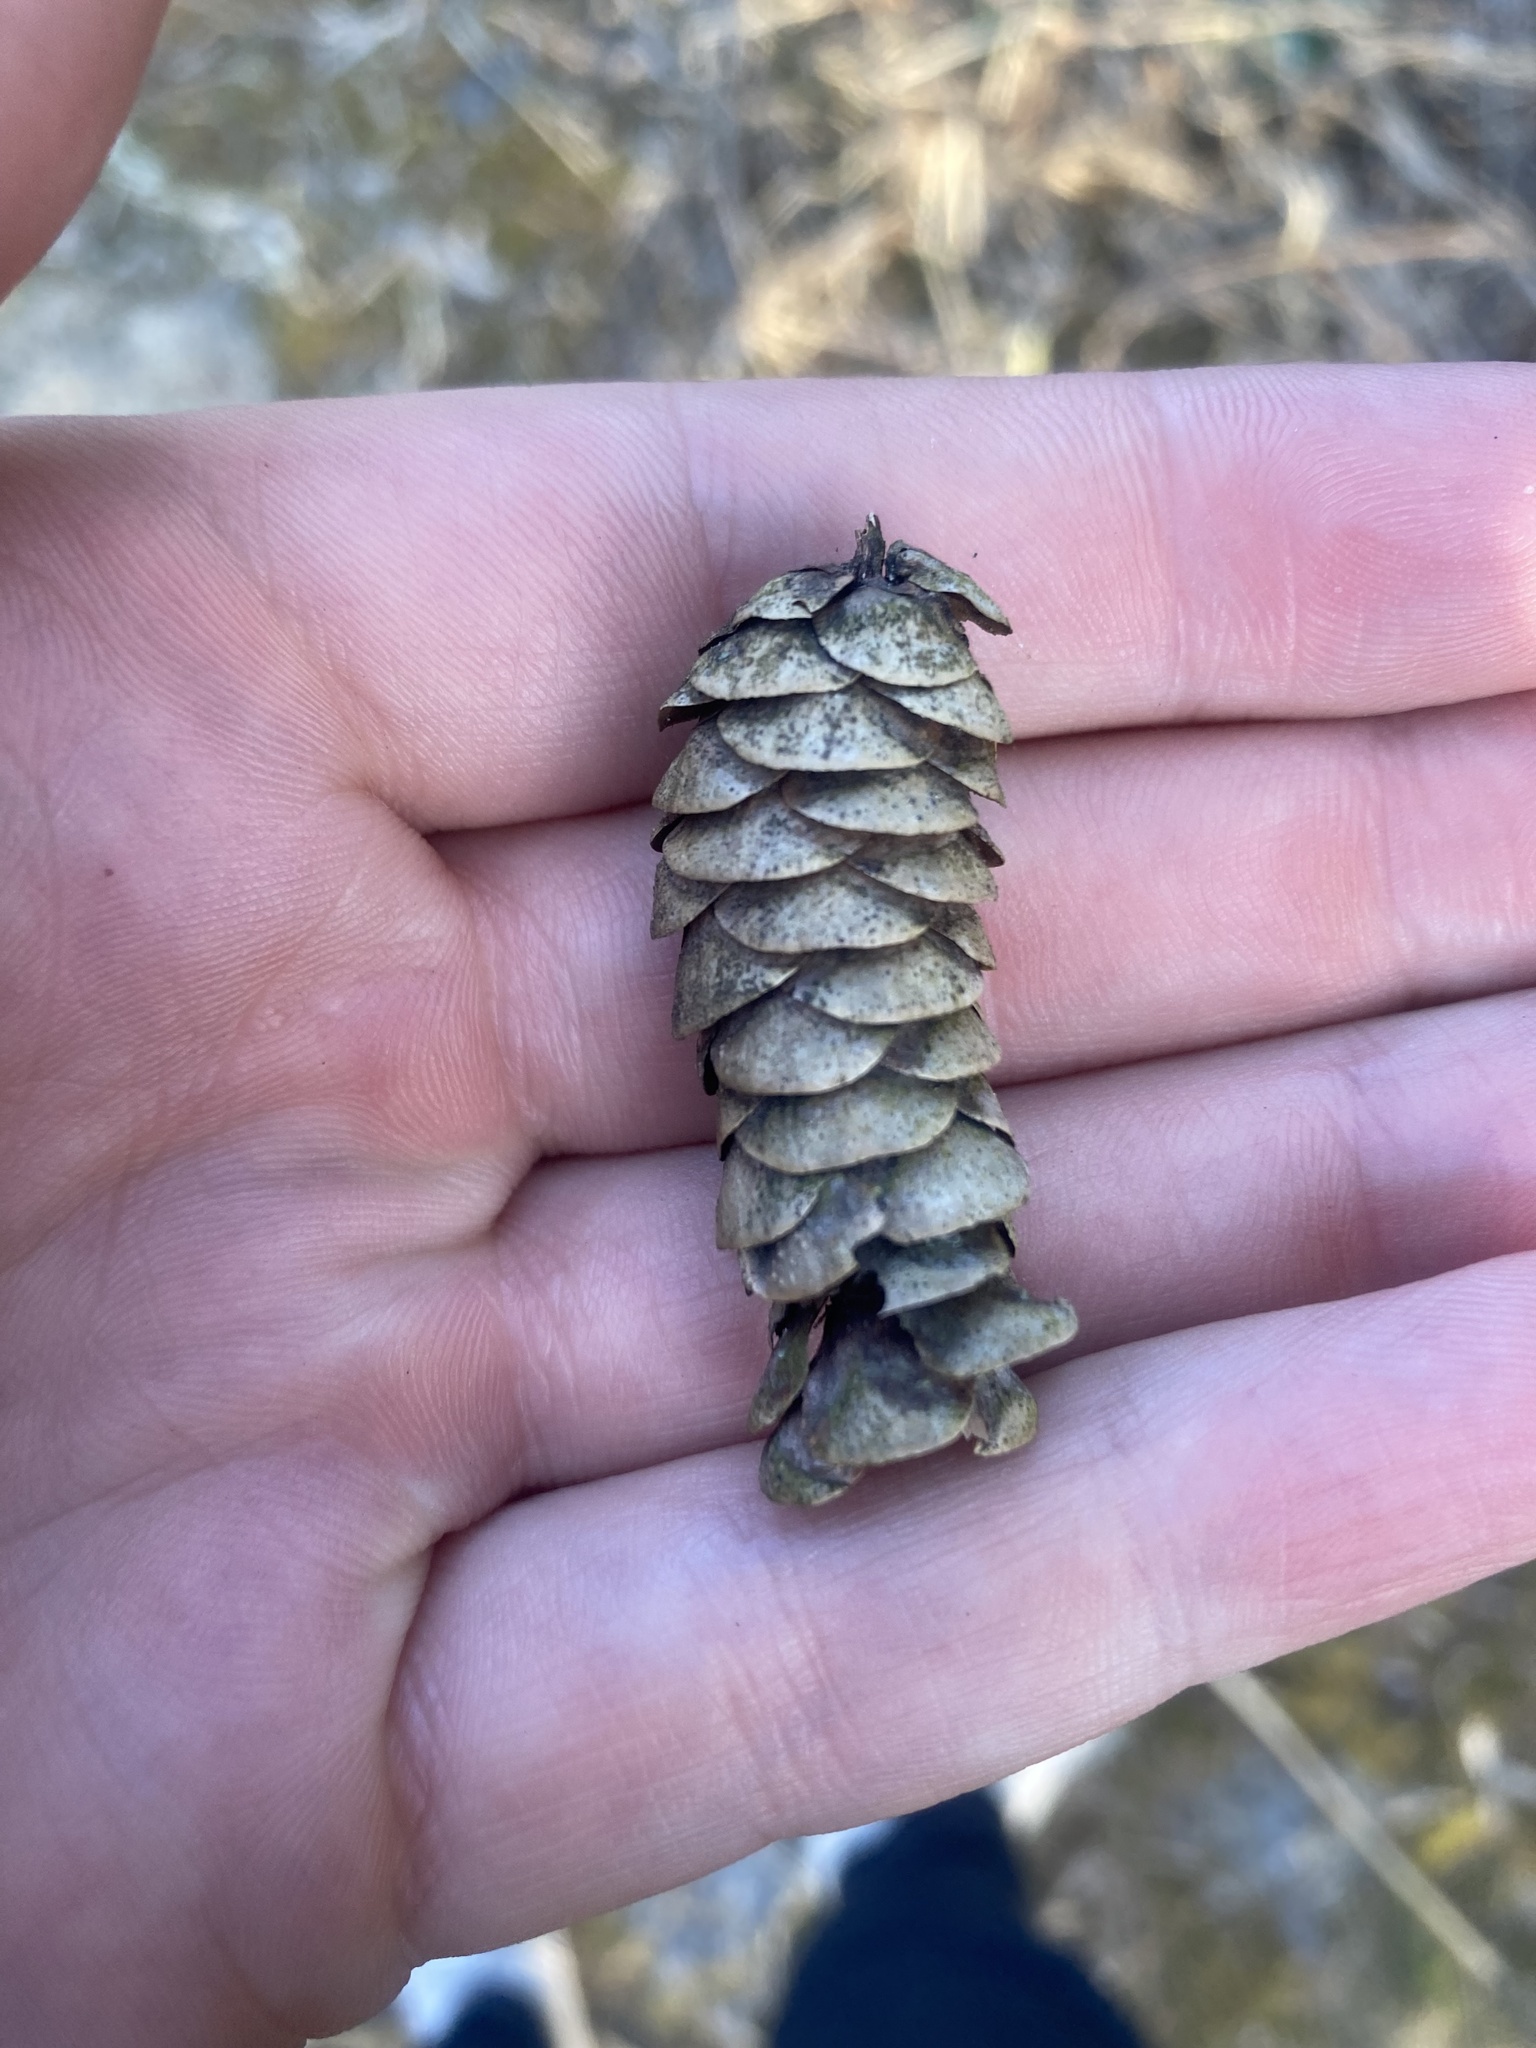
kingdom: Plantae
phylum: Tracheophyta
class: Pinopsida
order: Pinales
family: Pinaceae
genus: Picea
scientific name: Picea glauca
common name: White spruce
